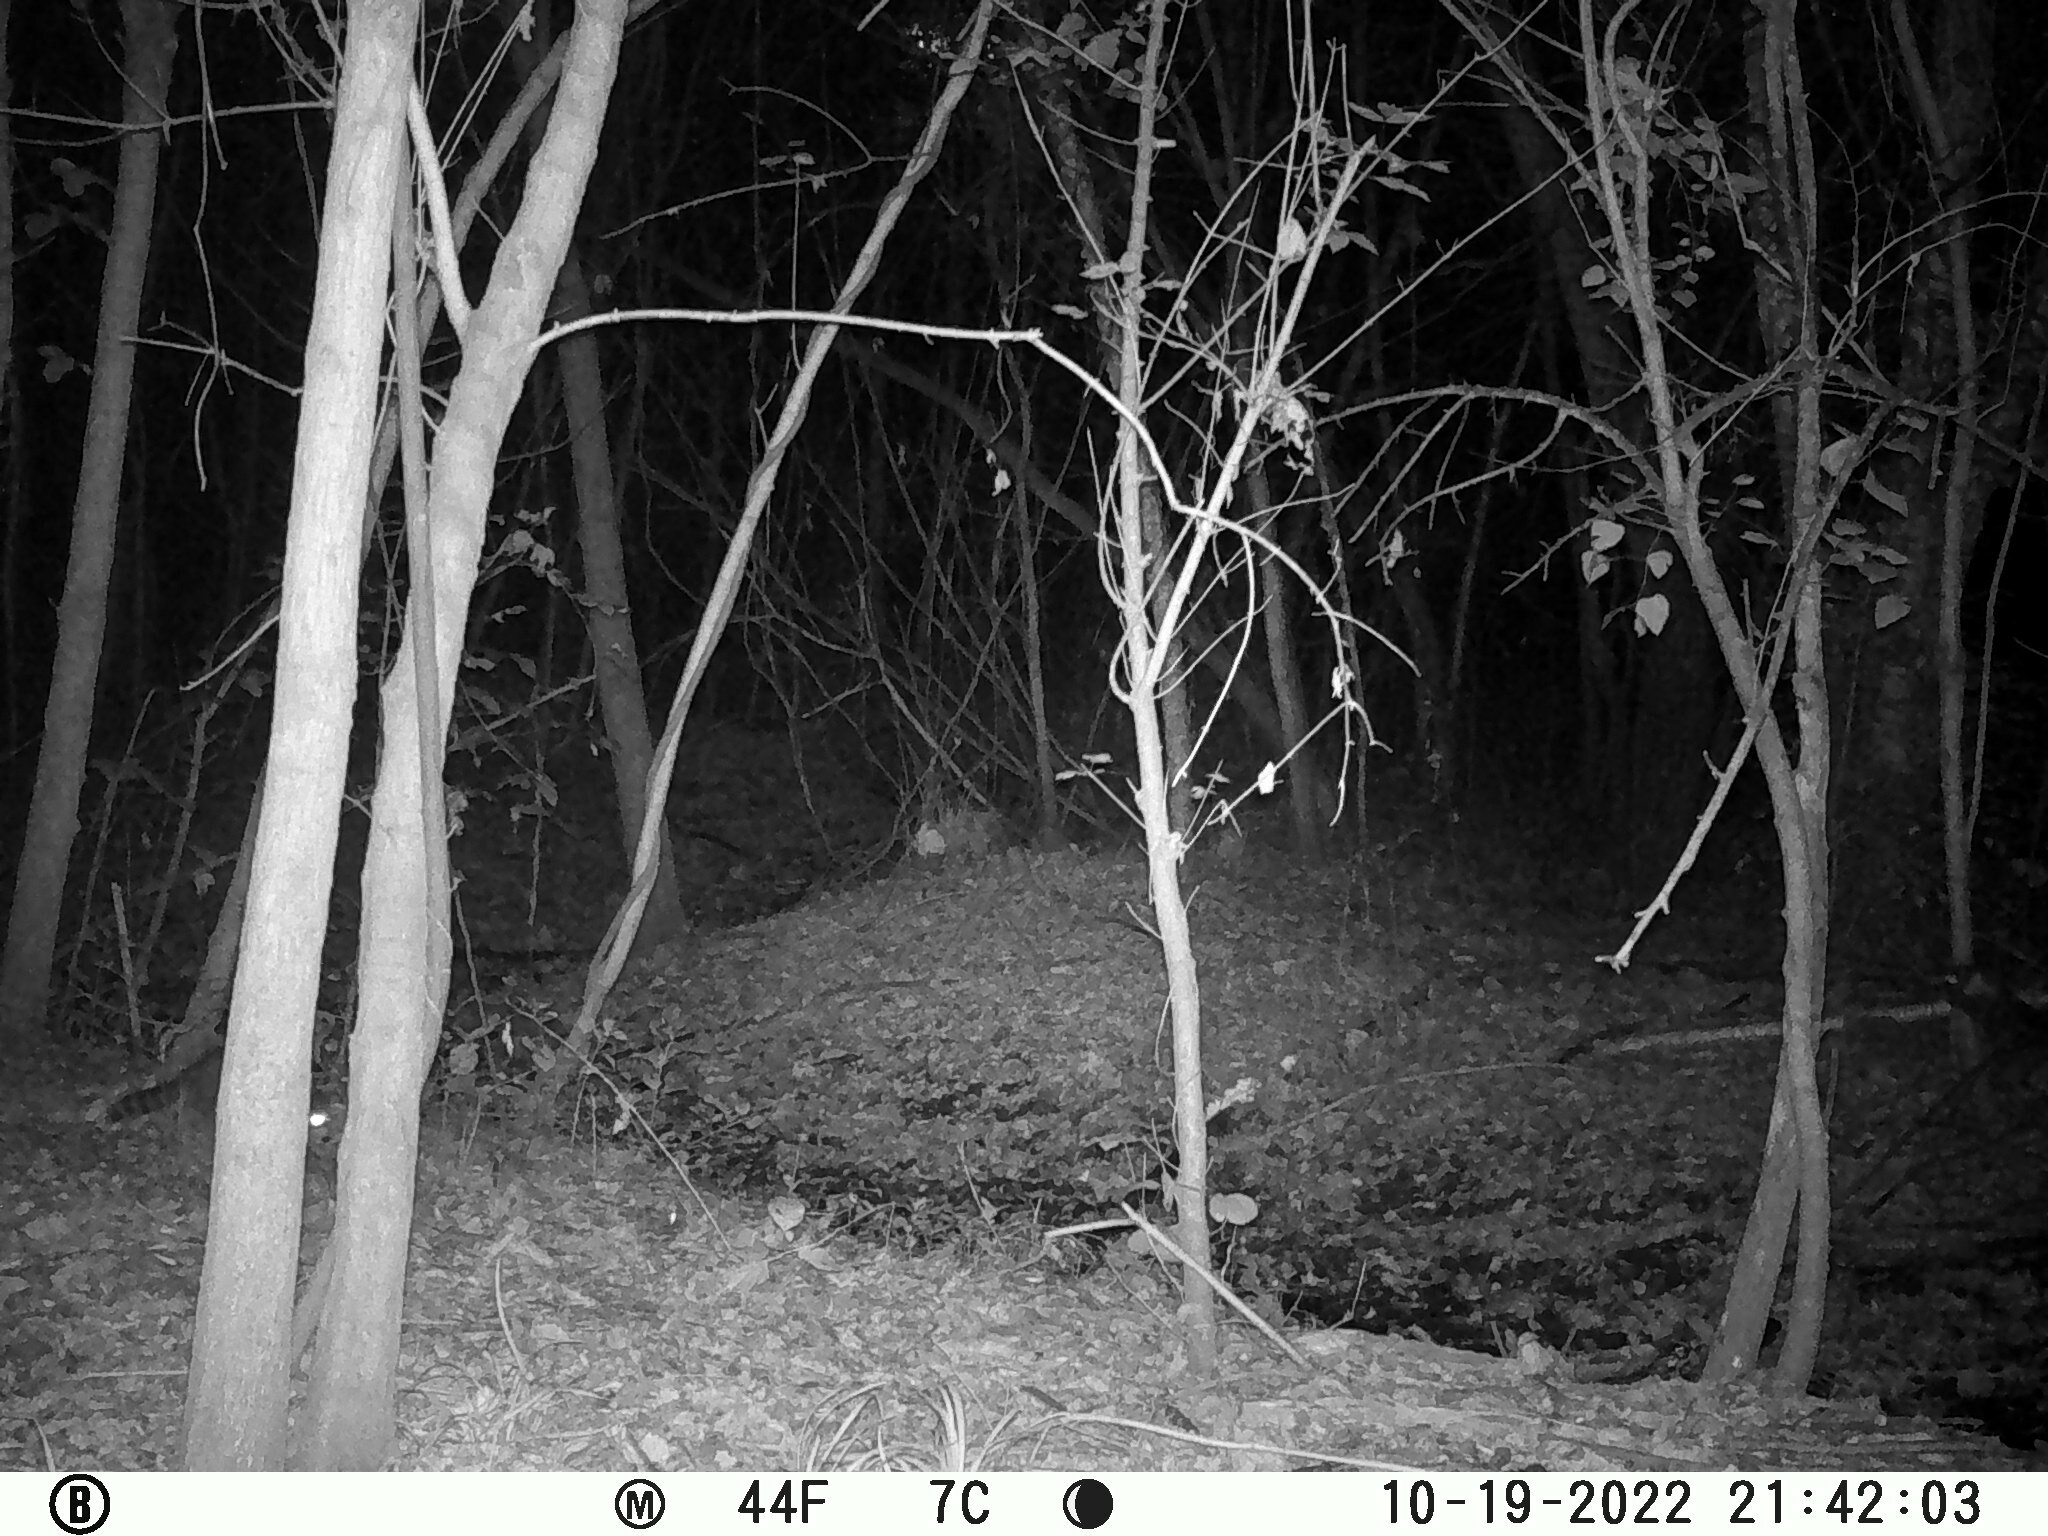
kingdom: Animalia
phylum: Chordata
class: Mammalia
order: Carnivora
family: Procyonidae
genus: Procyon
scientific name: Procyon lotor
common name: Raccoon
